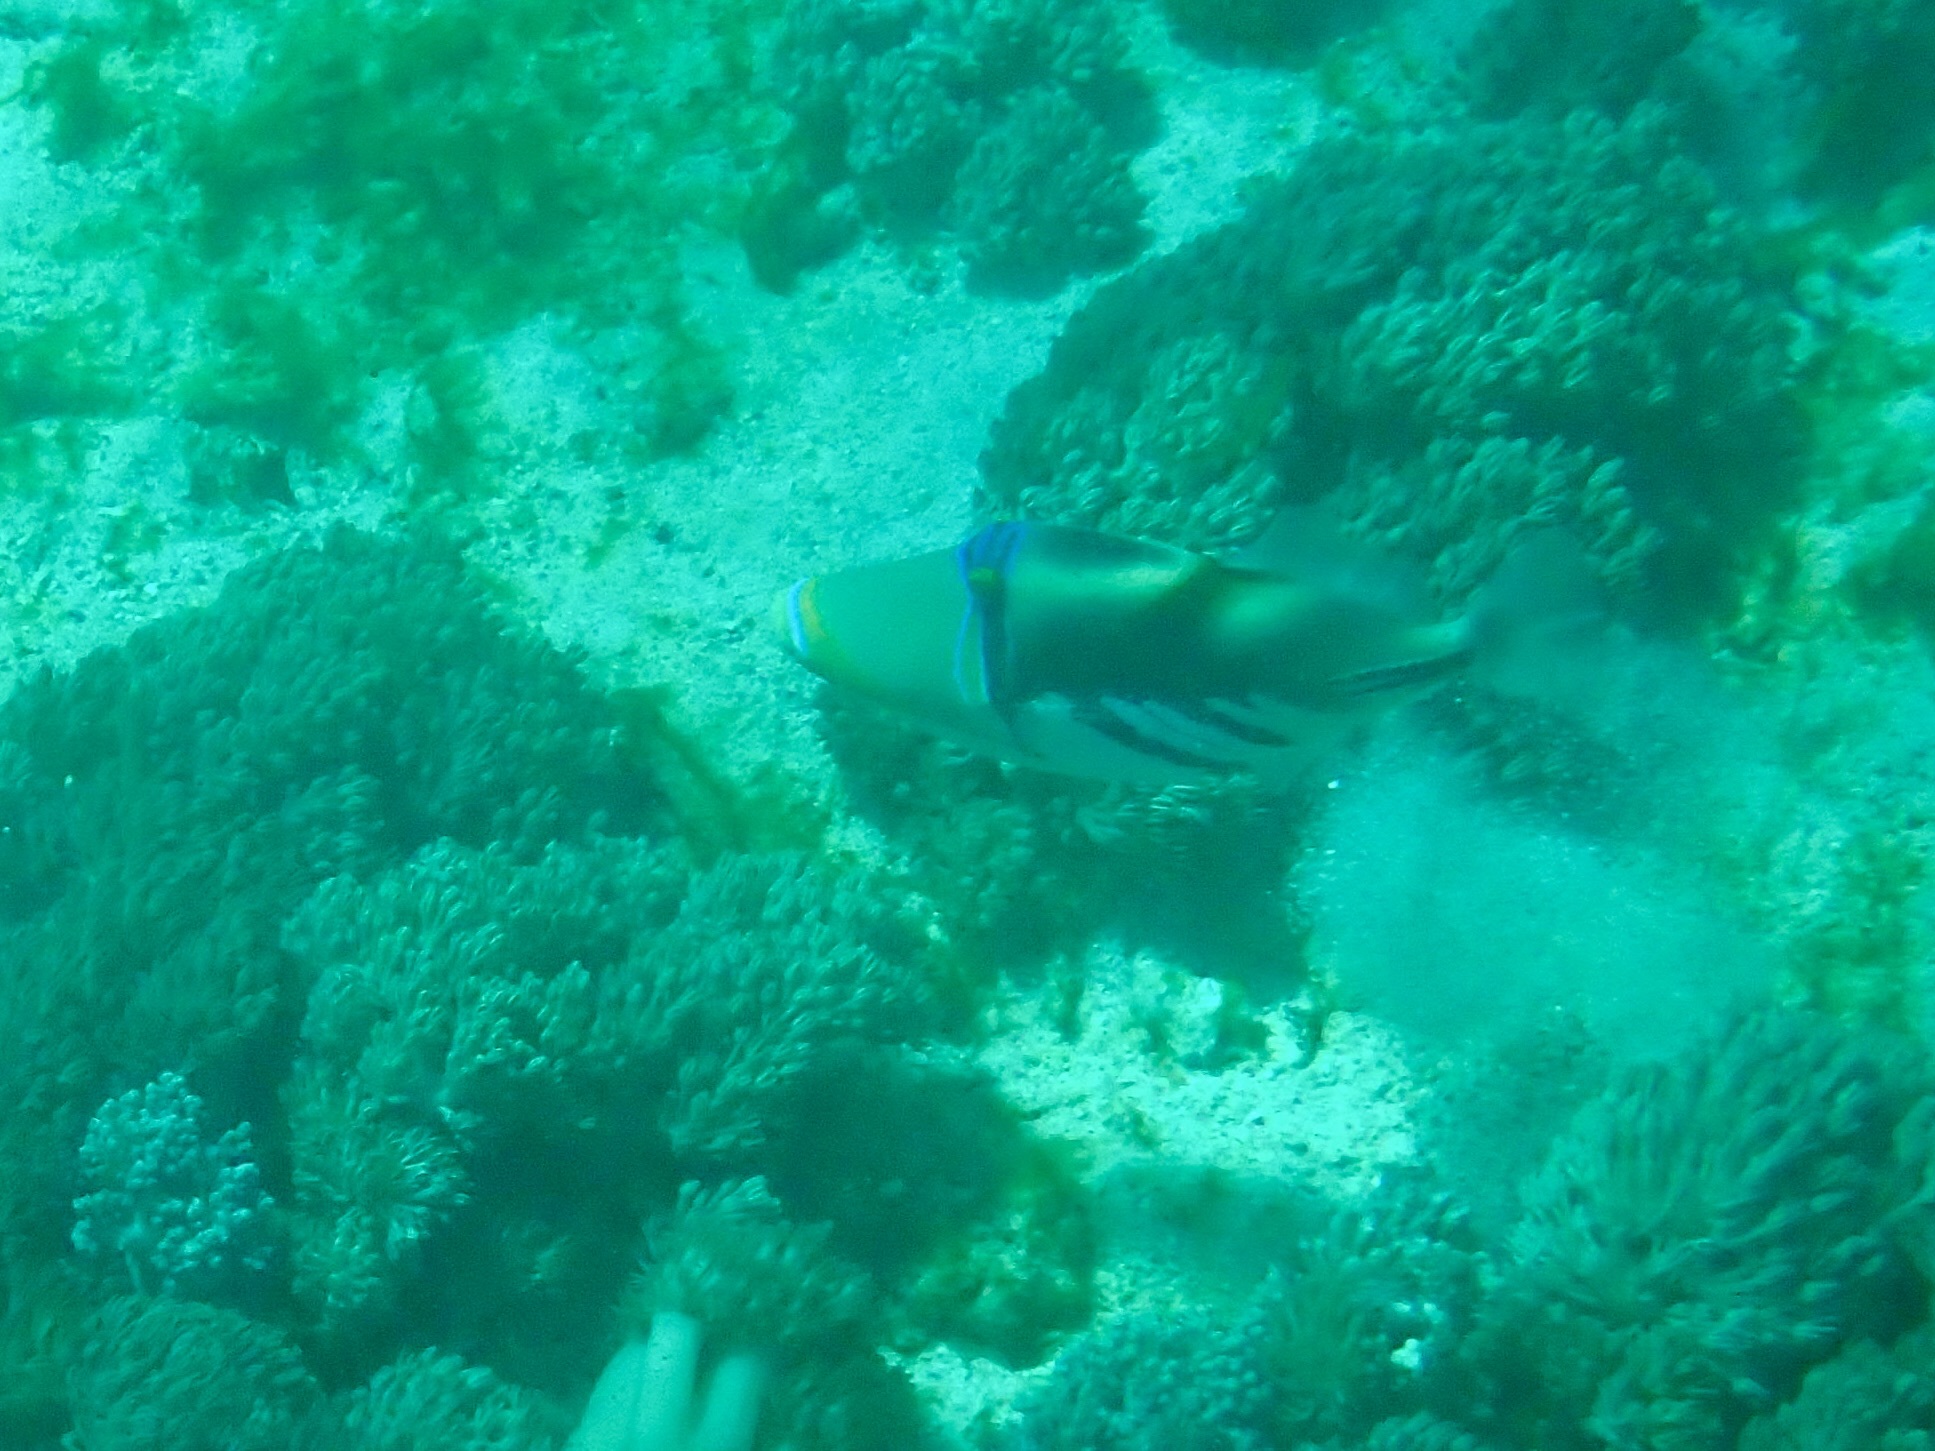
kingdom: Animalia
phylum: Chordata
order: Tetraodontiformes
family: Balistidae
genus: Rhinecanthus
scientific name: Rhinecanthus aculeatus
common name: White-banded triggerfish
